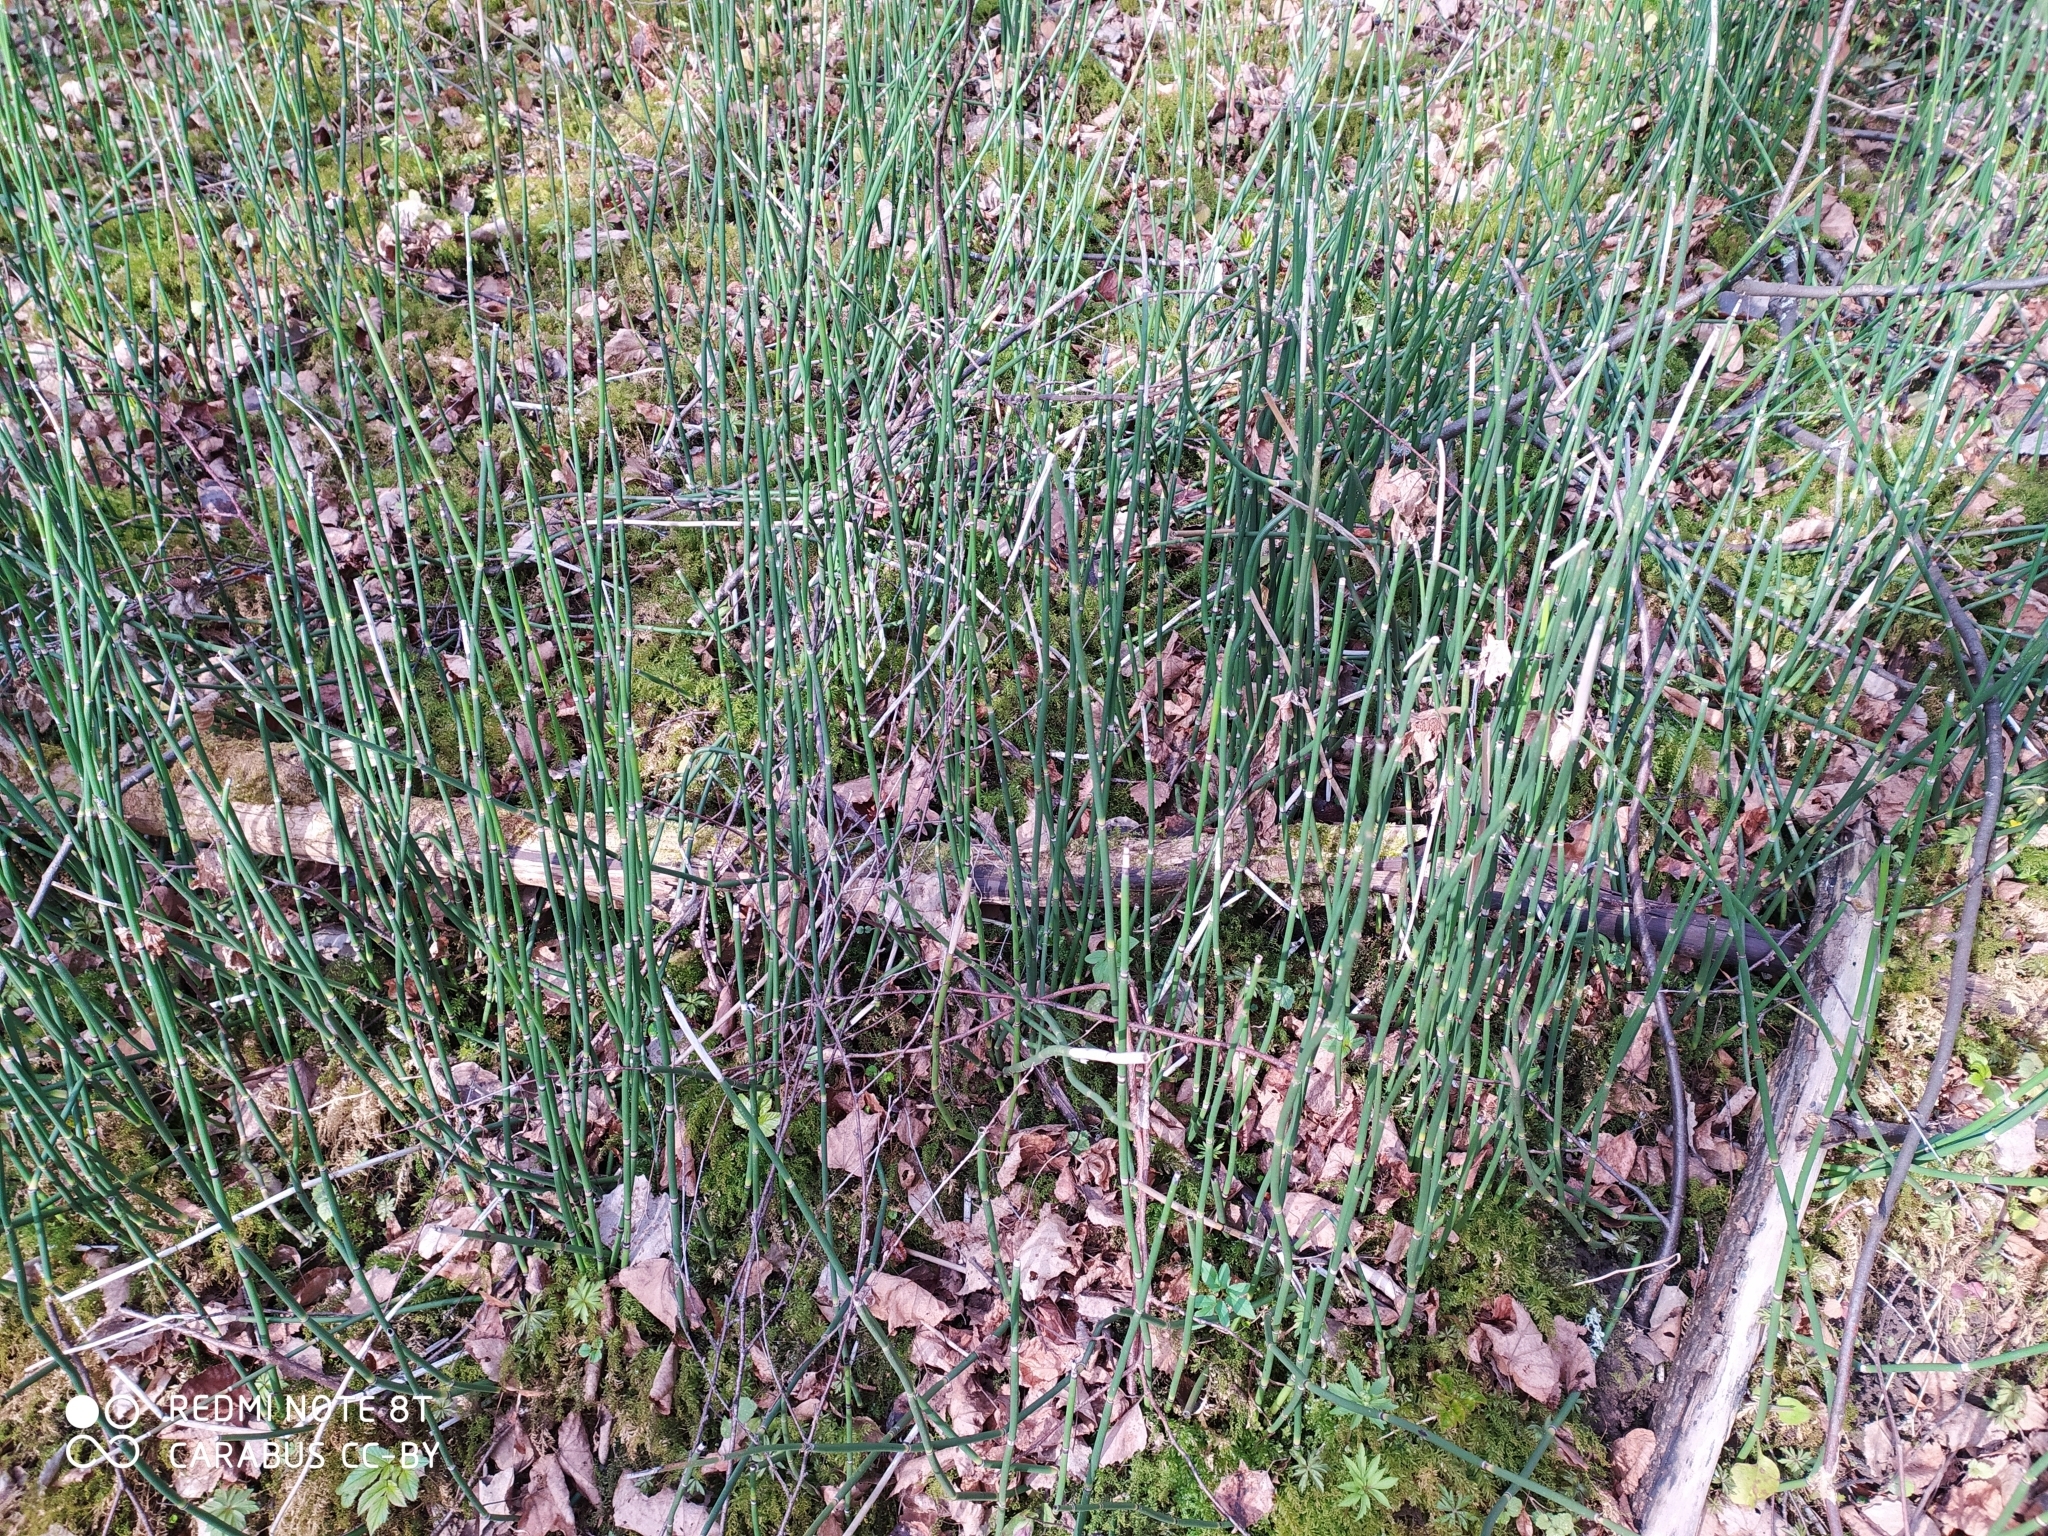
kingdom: Plantae
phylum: Tracheophyta
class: Polypodiopsida
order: Equisetales
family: Equisetaceae
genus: Equisetum
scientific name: Equisetum hyemale
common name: Rough horsetail
